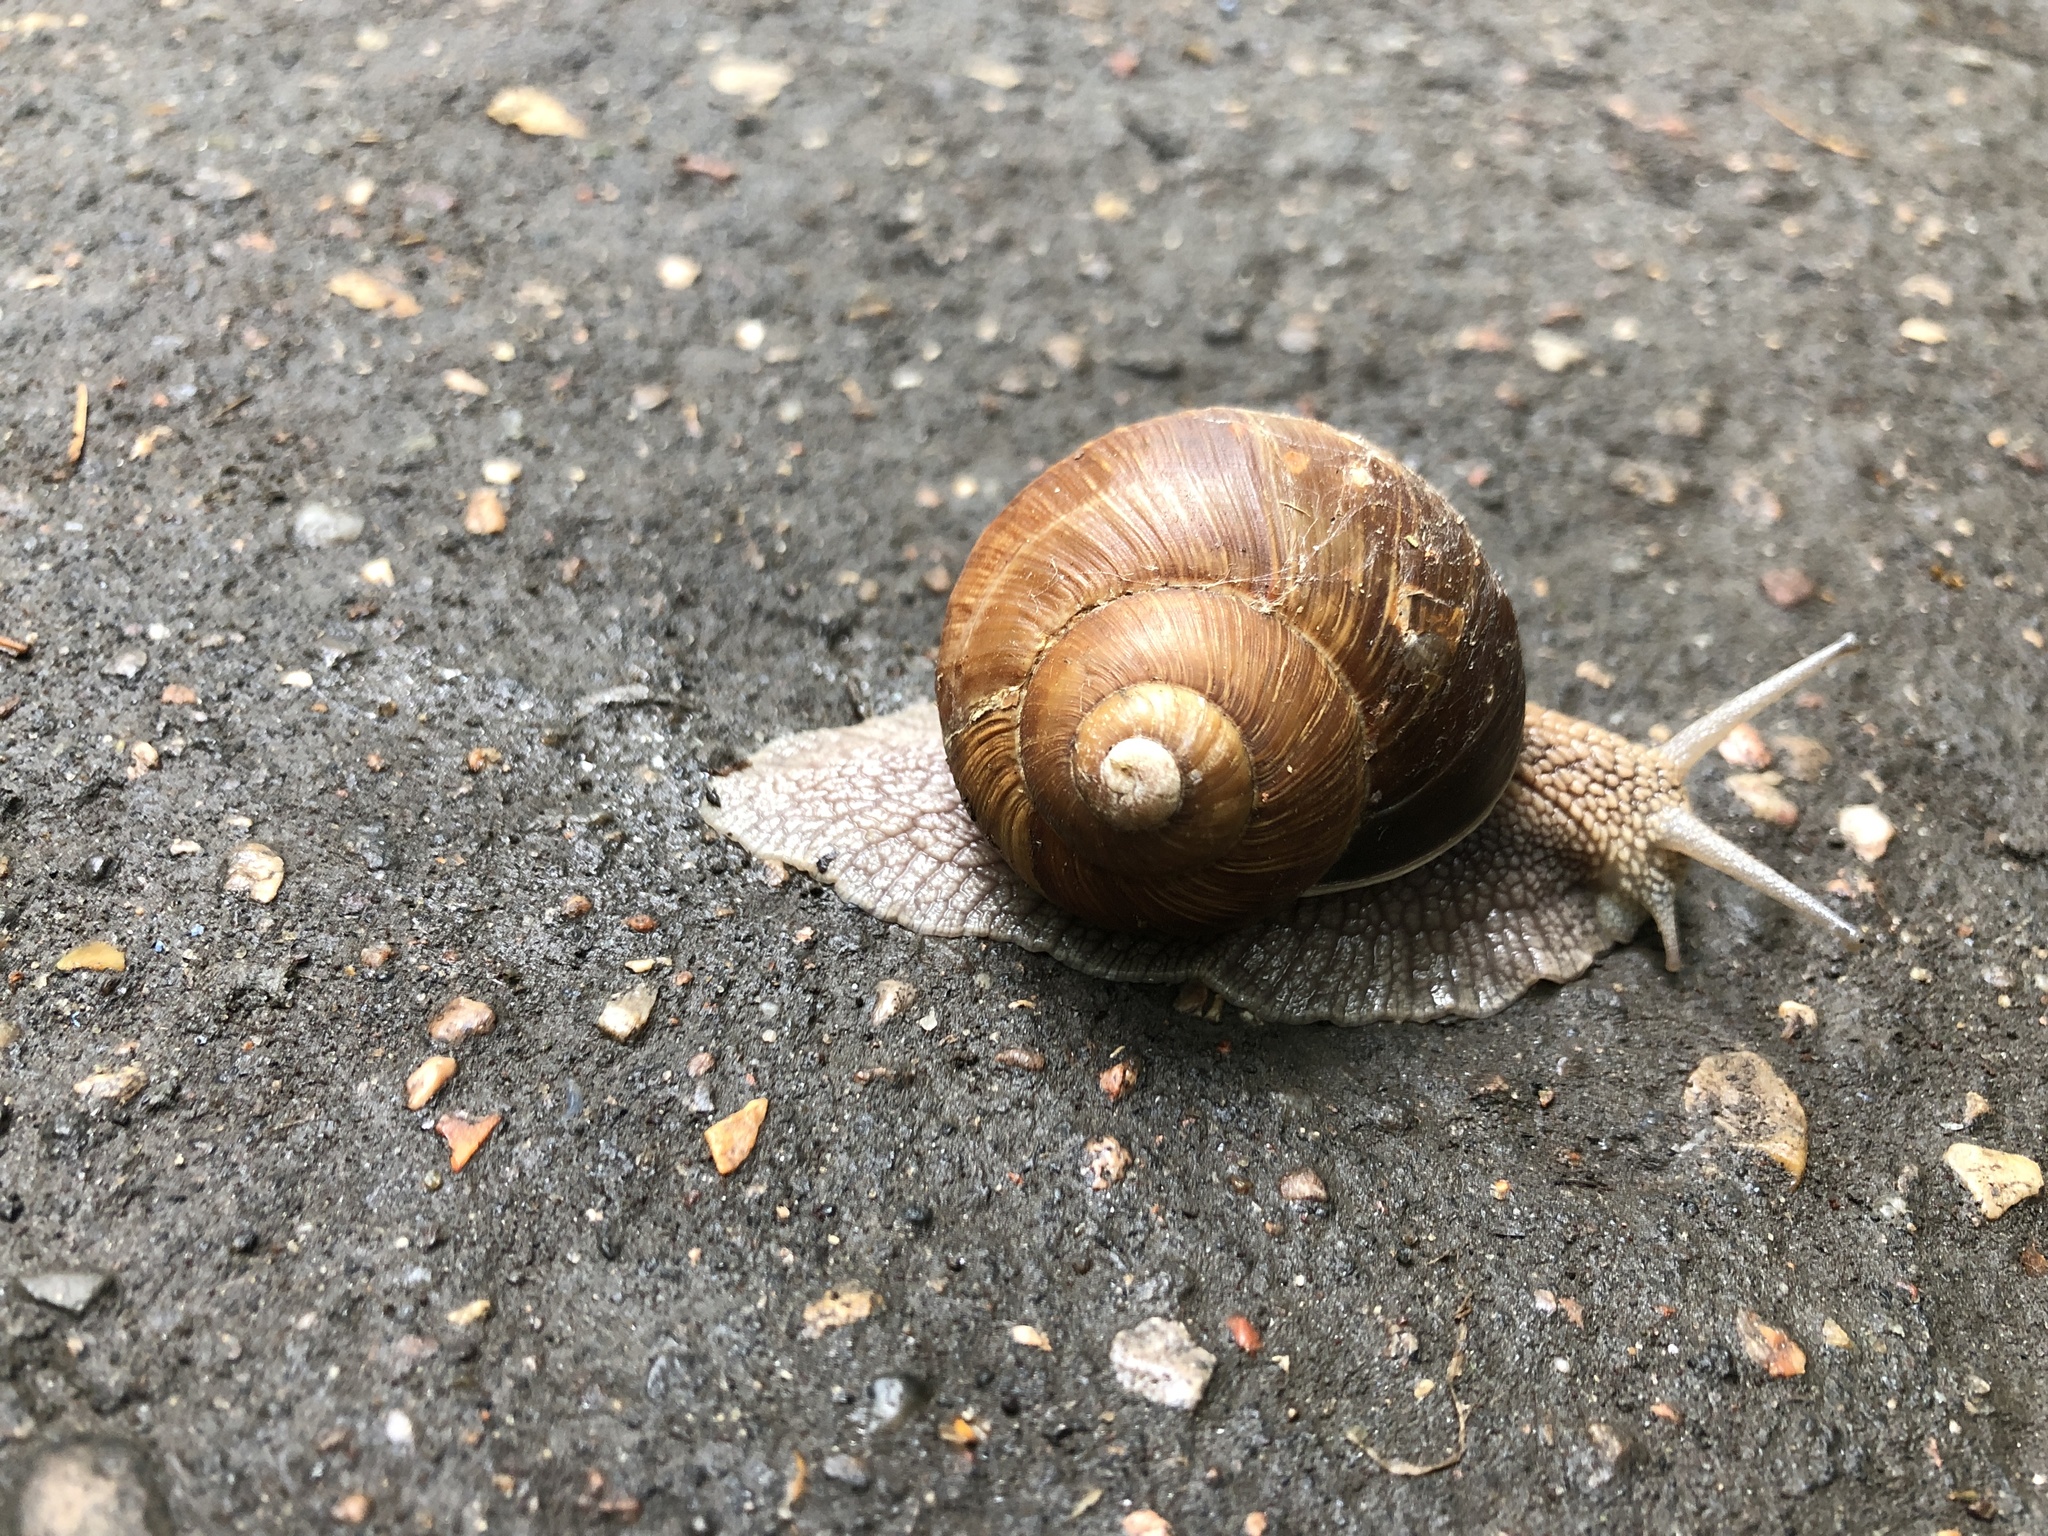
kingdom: Animalia
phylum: Mollusca
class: Gastropoda
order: Stylommatophora
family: Helicidae
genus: Helix
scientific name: Helix pomatia
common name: Roman snail
